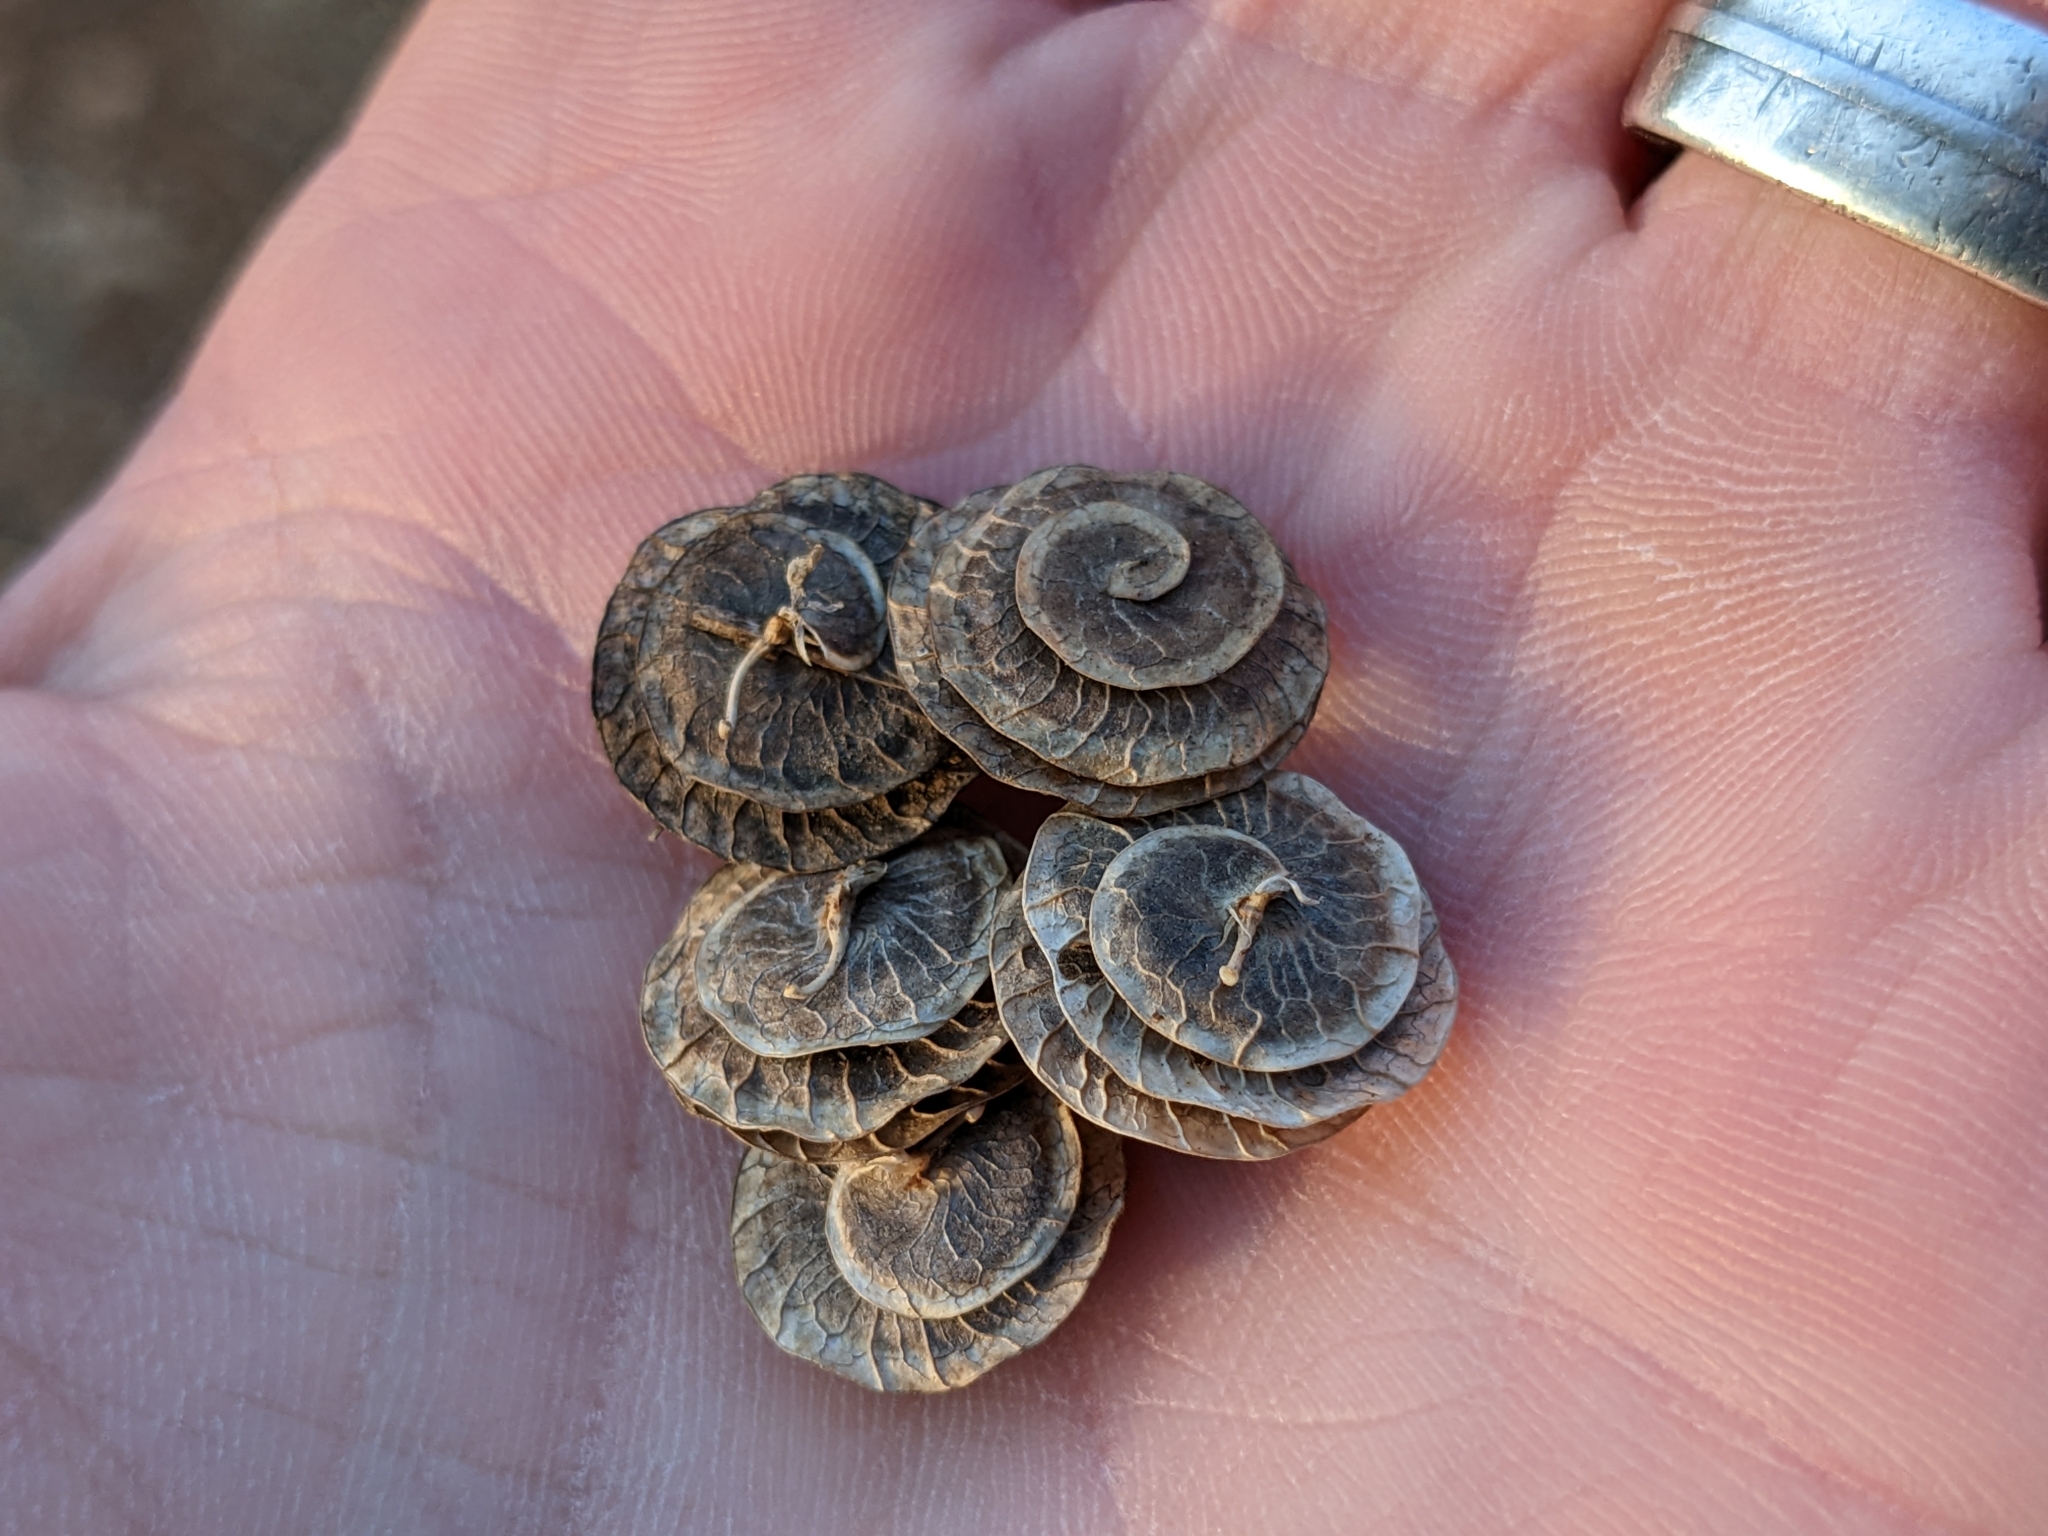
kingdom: Plantae
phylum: Tracheophyta
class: Magnoliopsida
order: Fabales
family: Fabaceae
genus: Medicago
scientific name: Medicago orbicularis
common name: Button medick
